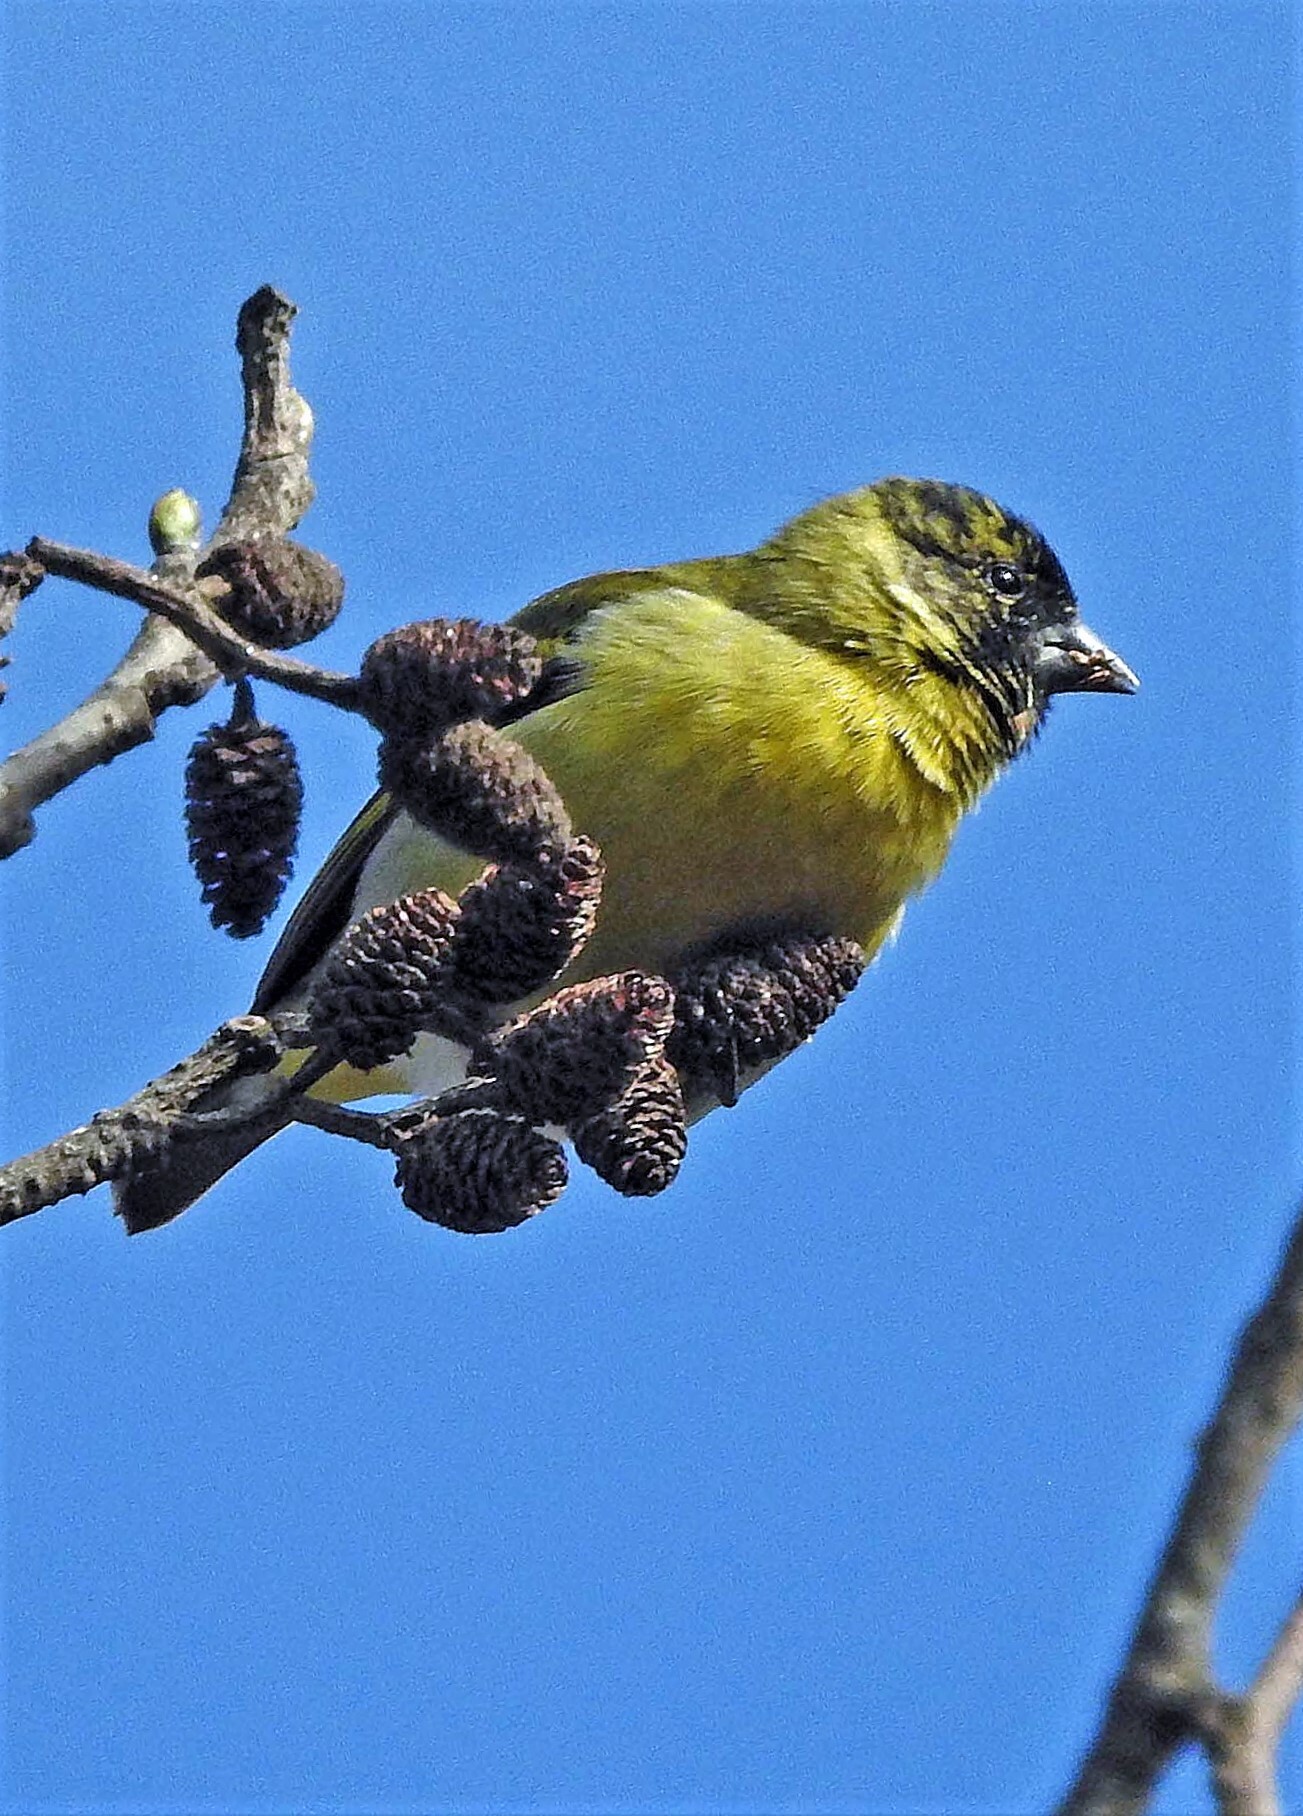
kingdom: Animalia
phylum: Chordata
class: Aves
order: Passeriformes
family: Fringillidae
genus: Spinus
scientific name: Spinus magellanicus
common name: Hooded siskin
